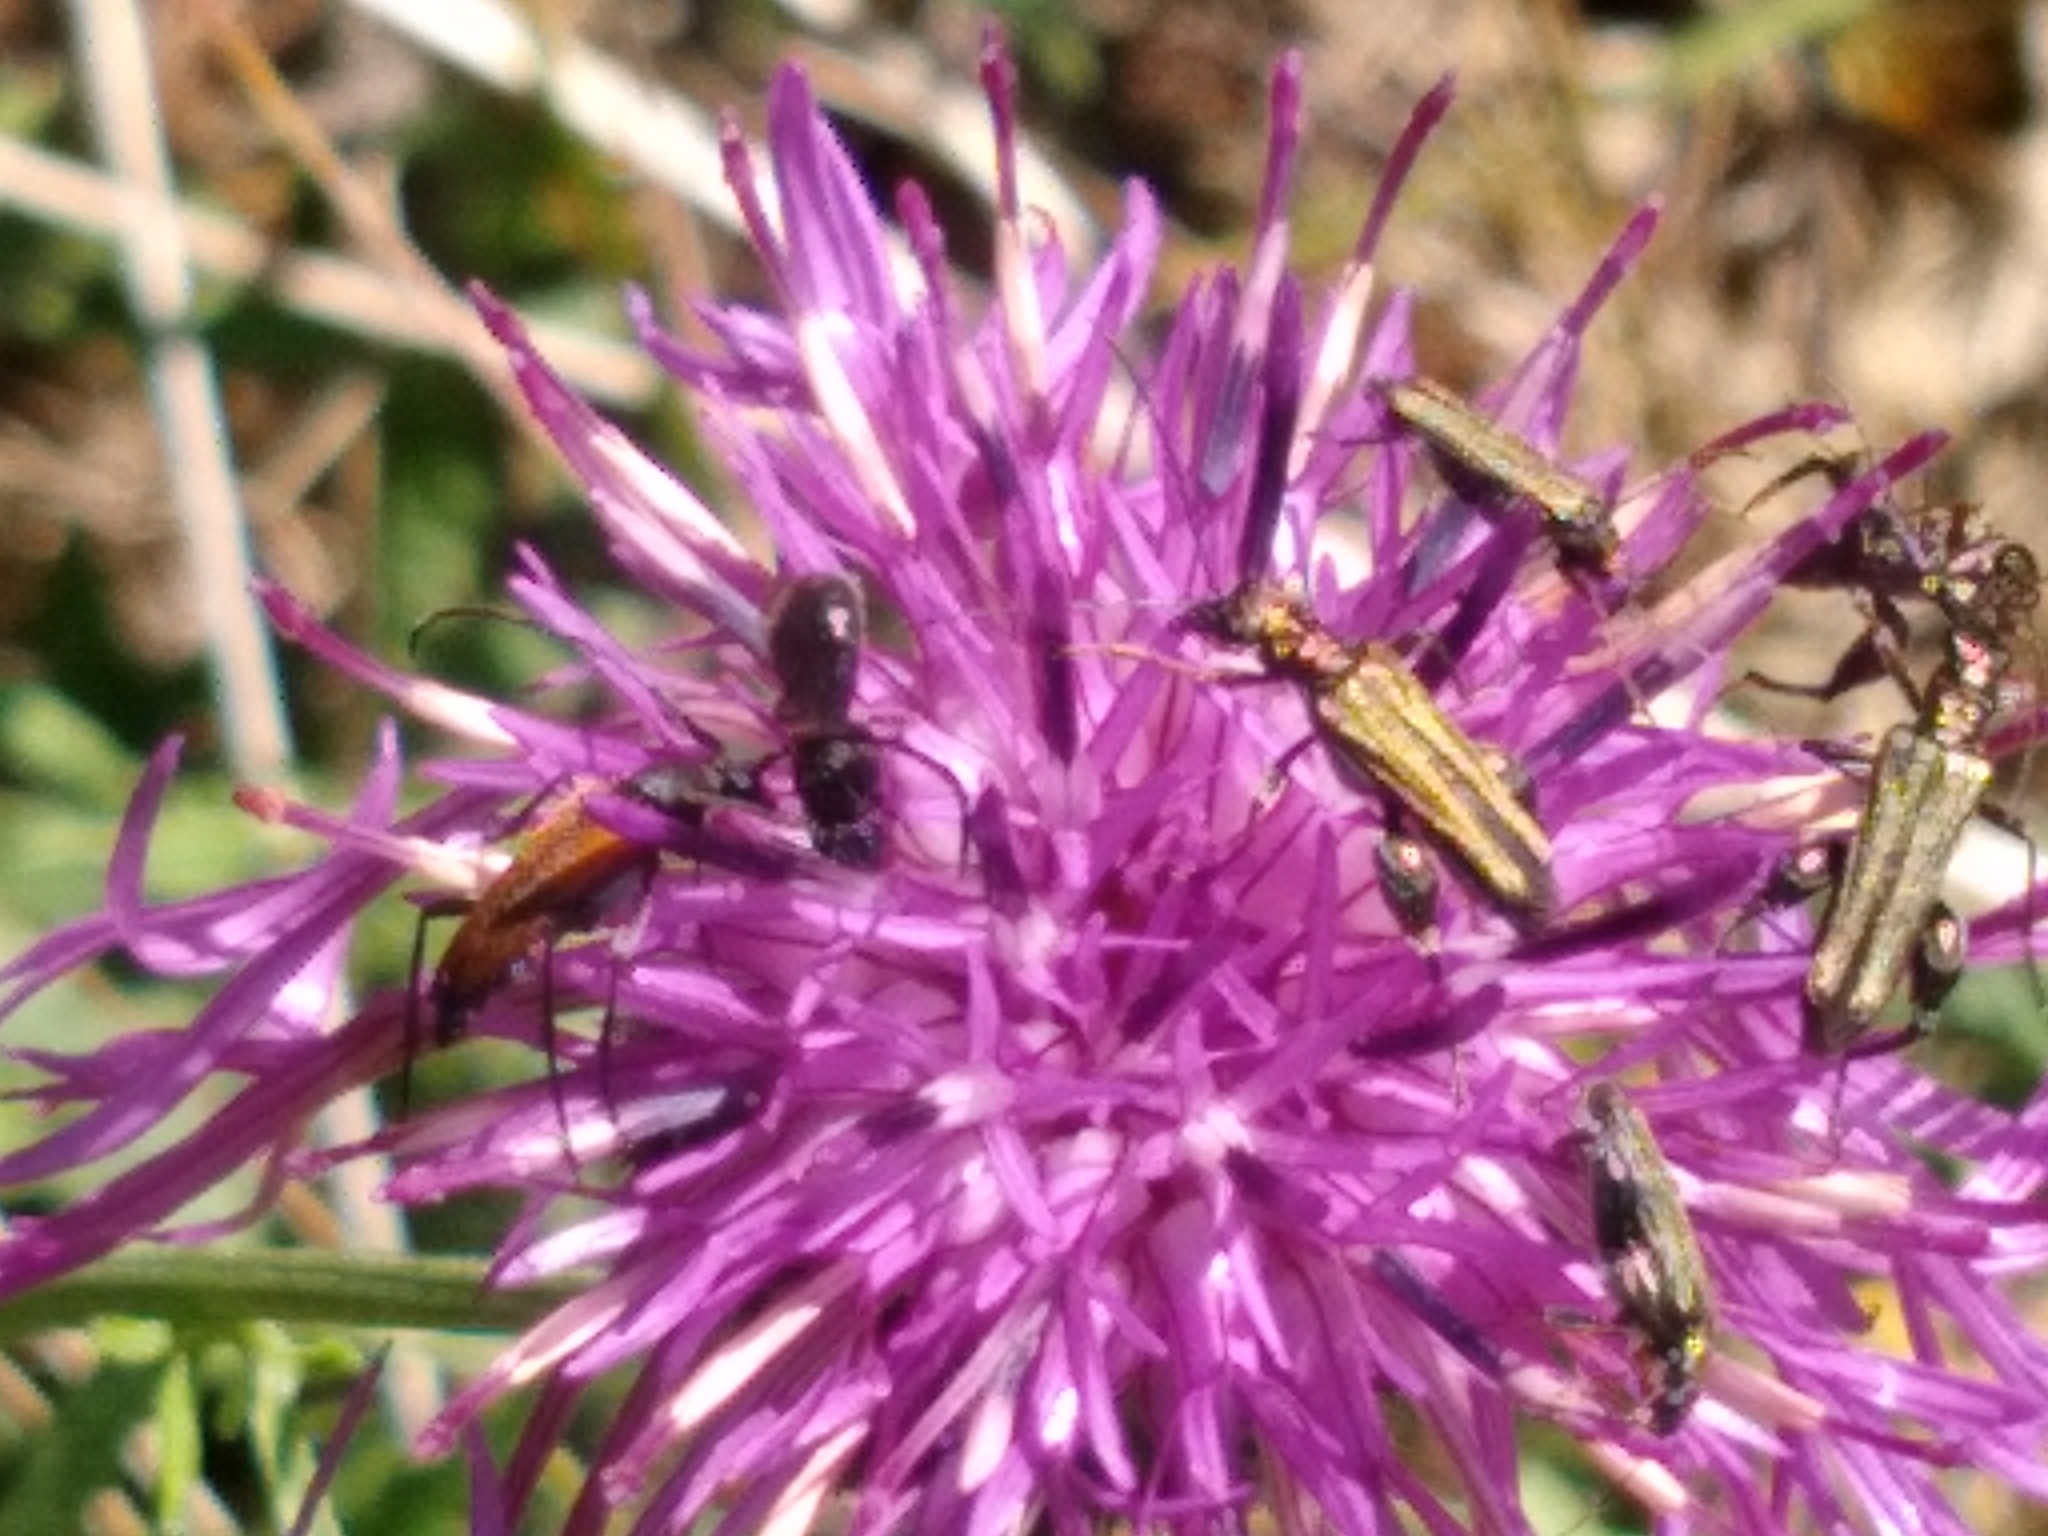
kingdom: Animalia
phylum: Arthropoda
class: Insecta
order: Coleoptera
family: Oedemeridae
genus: Oedemera
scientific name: Oedemera femorata
